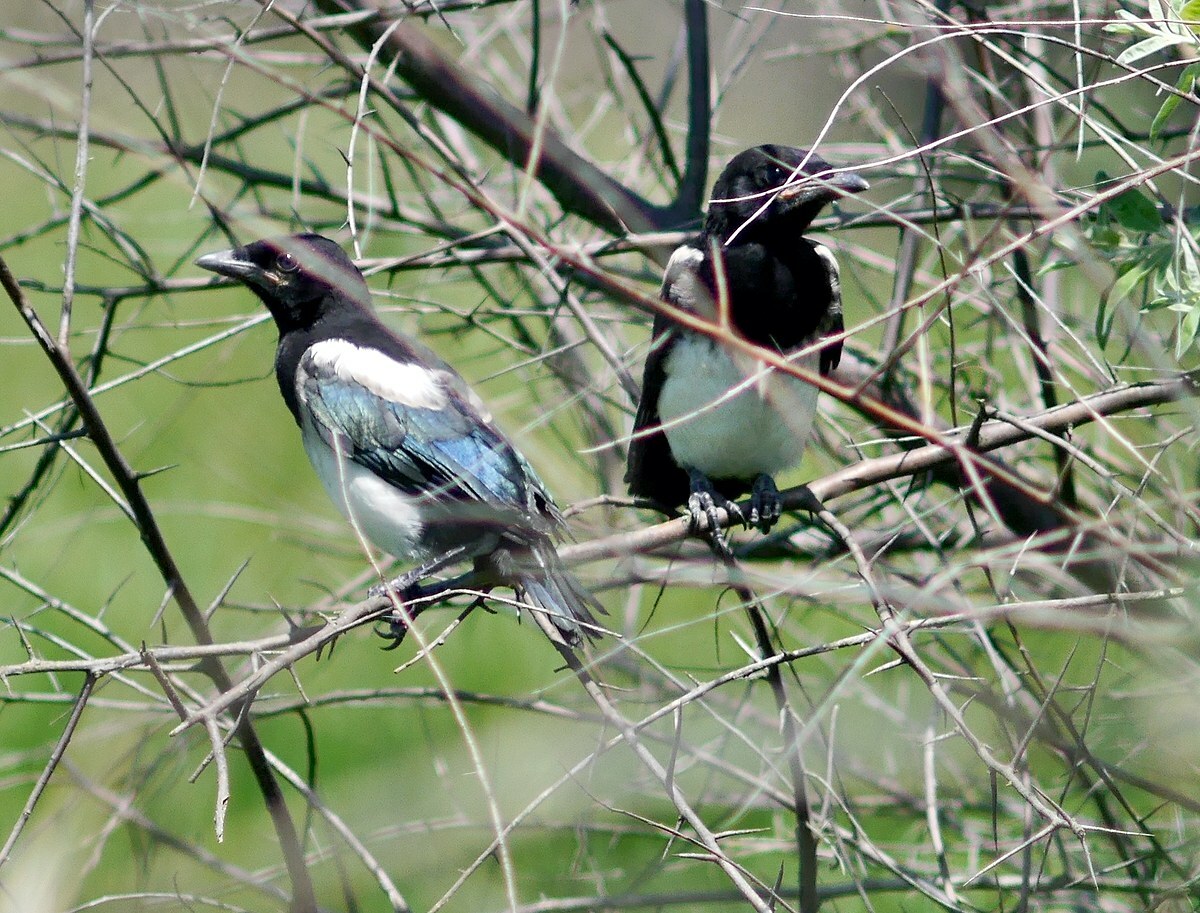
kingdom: Animalia
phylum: Chordata
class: Aves
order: Passeriformes
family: Corvidae
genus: Pica
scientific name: Pica pica
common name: Eurasian magpie
